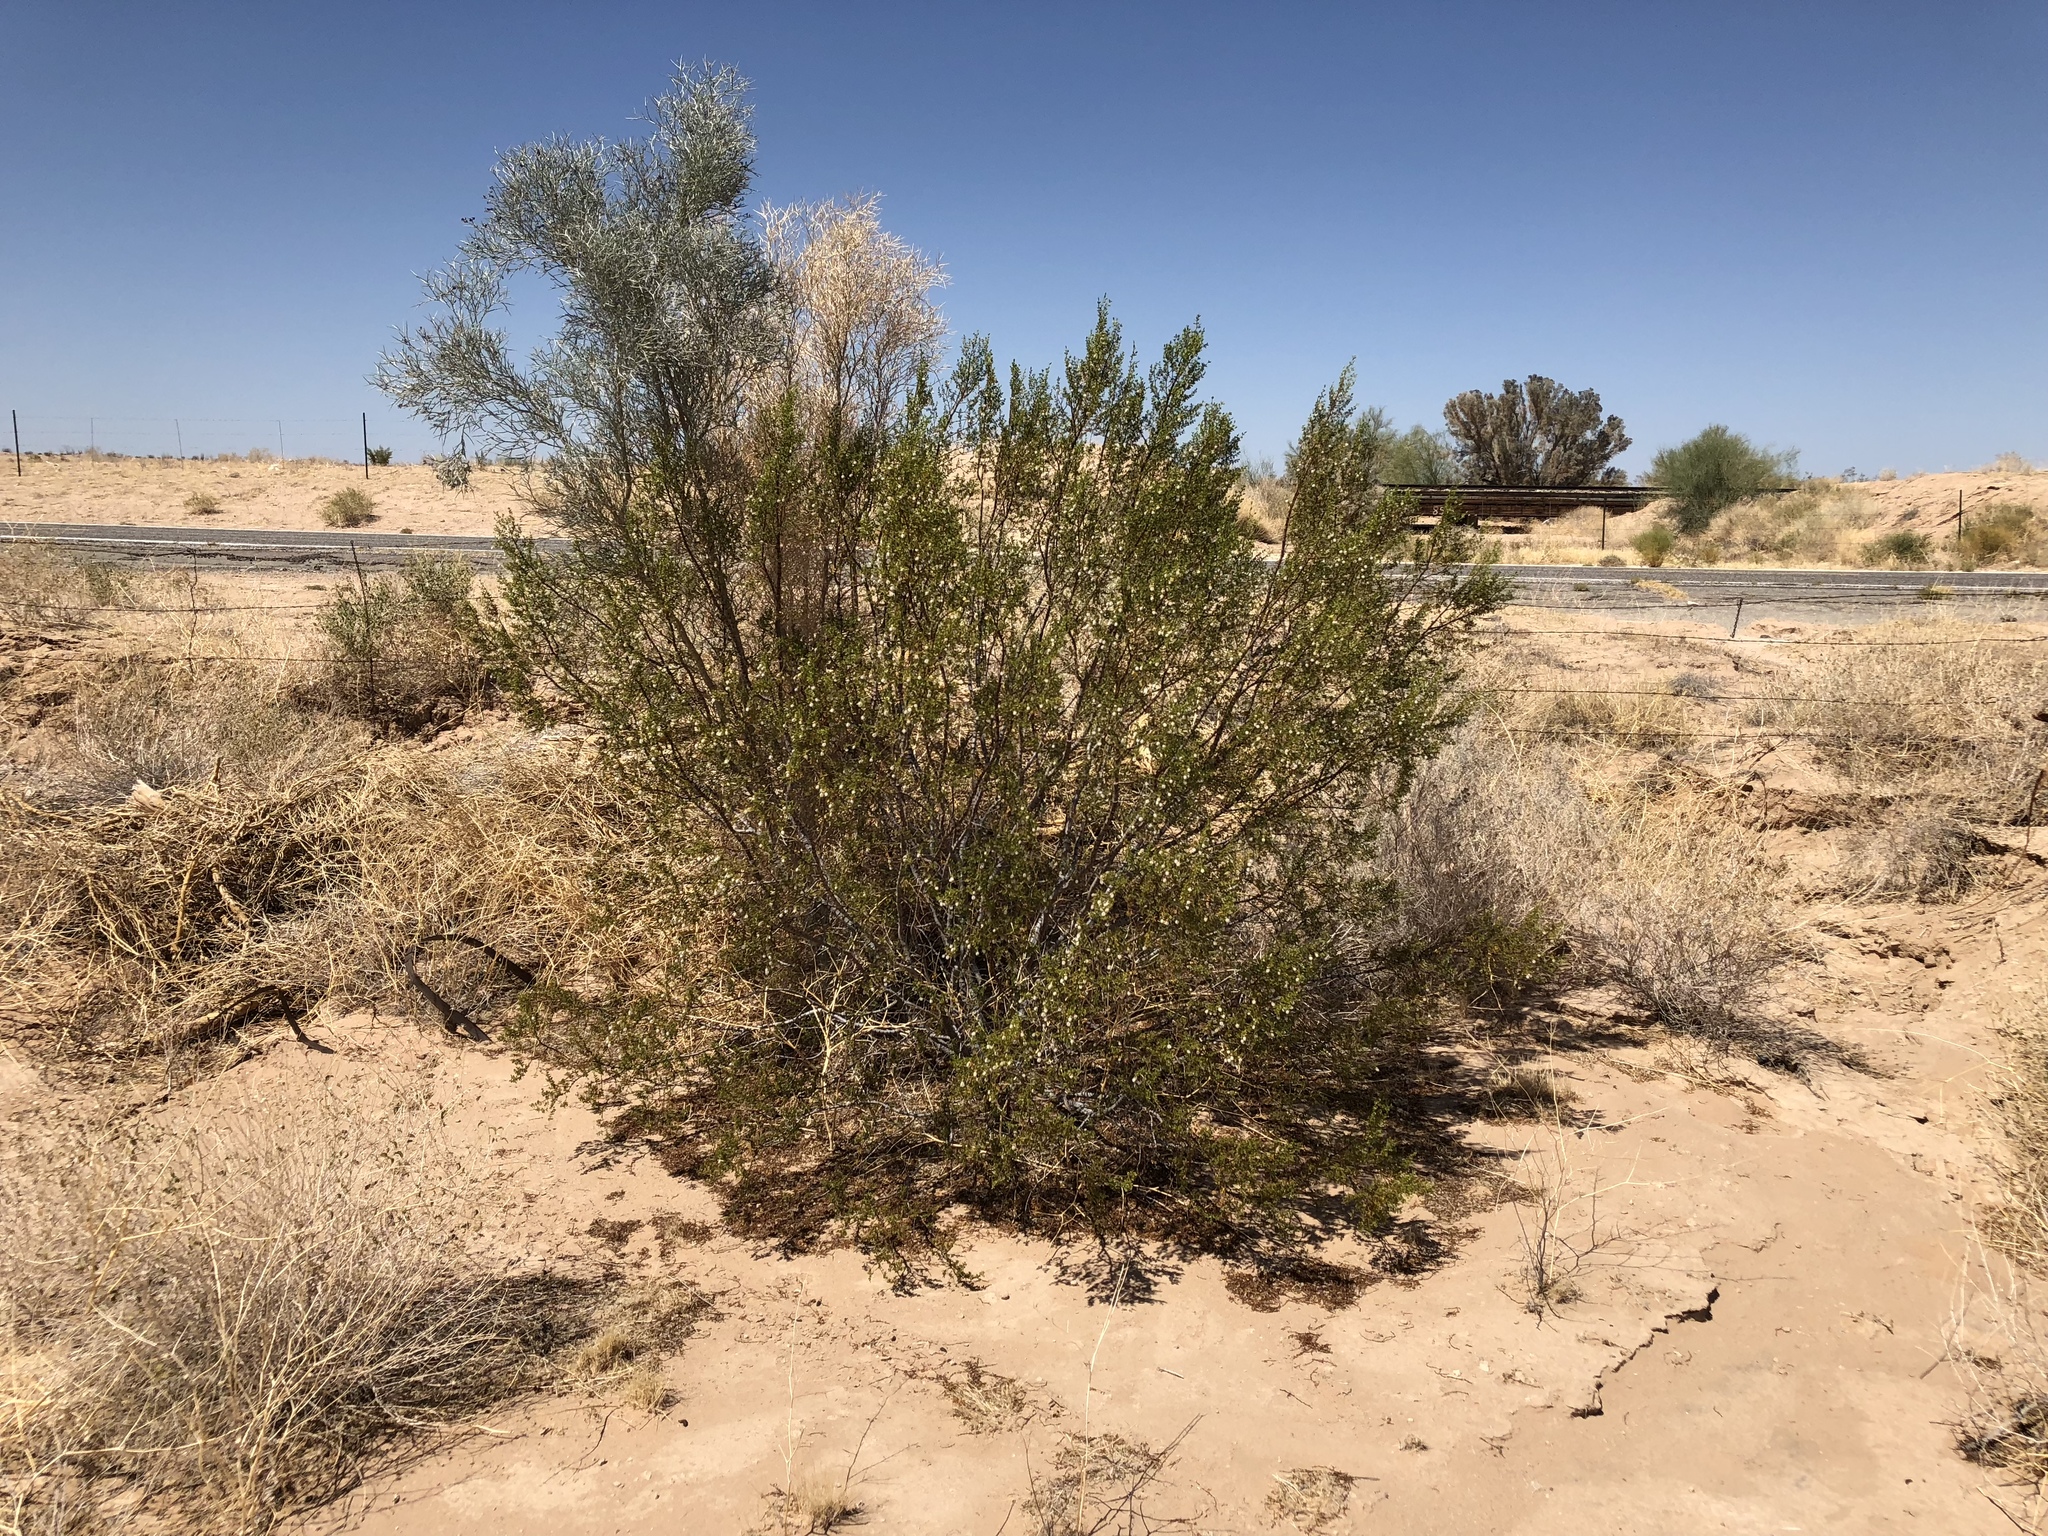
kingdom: Plantae
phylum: Tracheophyta
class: Magnoliopsida
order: Zygophyllales
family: Zygophyllaceae
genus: Larrea
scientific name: Larrea tridentata
